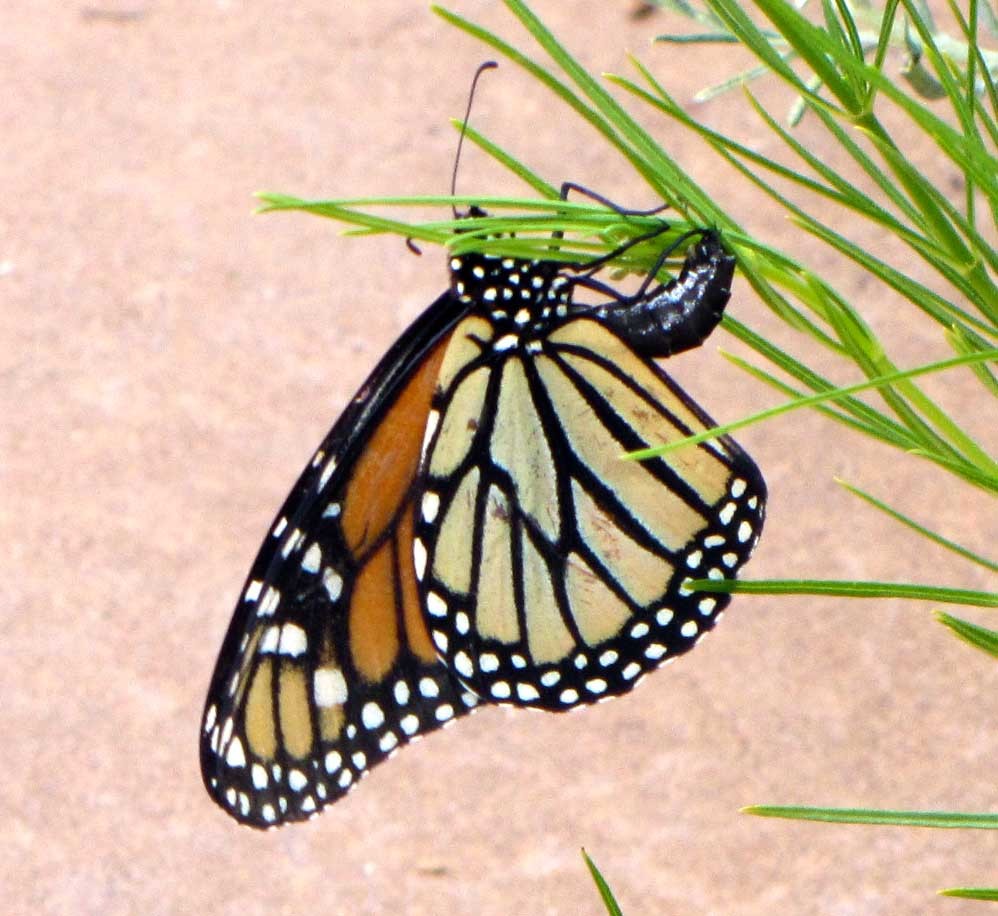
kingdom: Animalia
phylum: Arthropoda
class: Insecta
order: Lepidoptera
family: Nymphalidae
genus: Danaus
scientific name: Danaus plexippus
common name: Monarch
